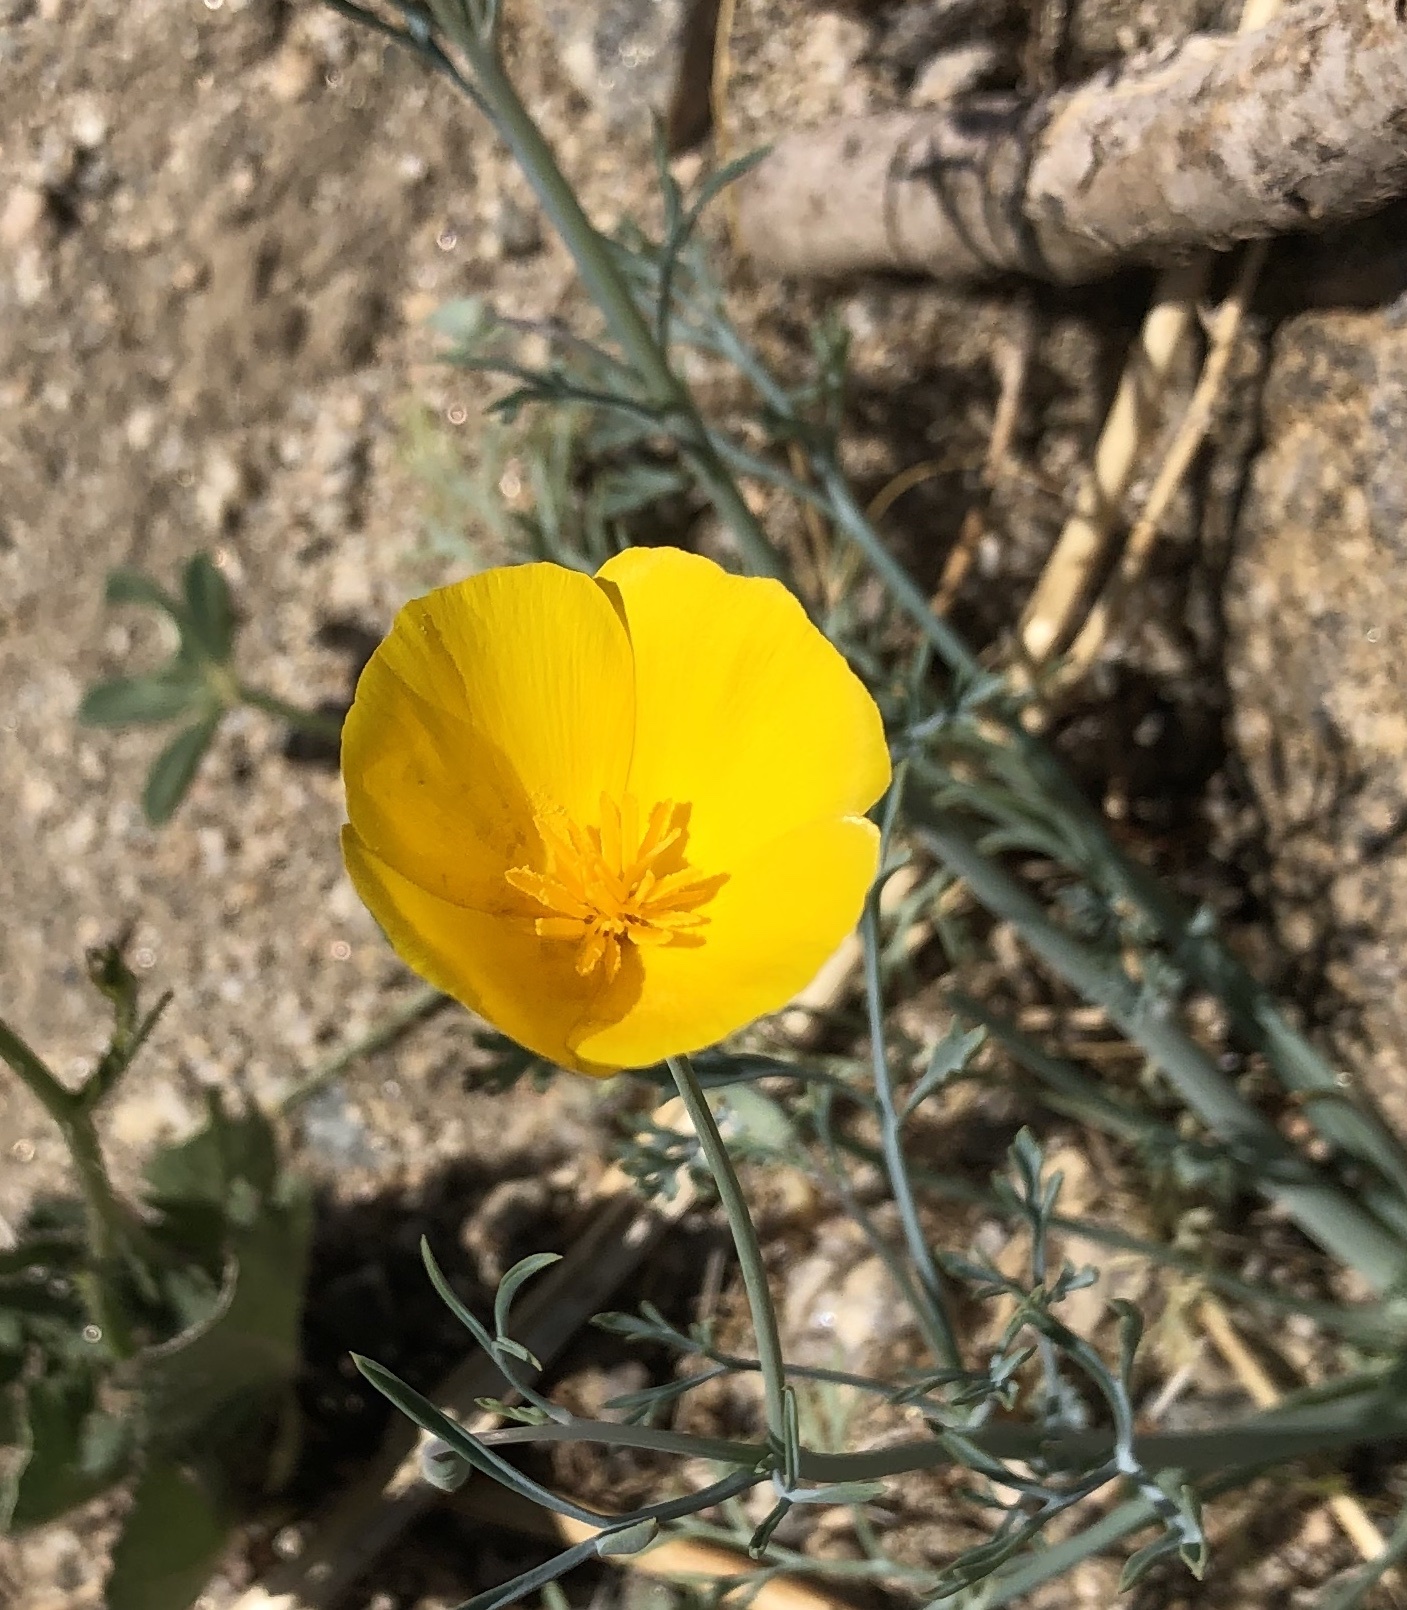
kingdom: Plantae
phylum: Tracheophyta
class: Magnoliopsida
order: Ranunculales
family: Papaveraceae
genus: Eschscholzia
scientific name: Eschscholzia papastillii
